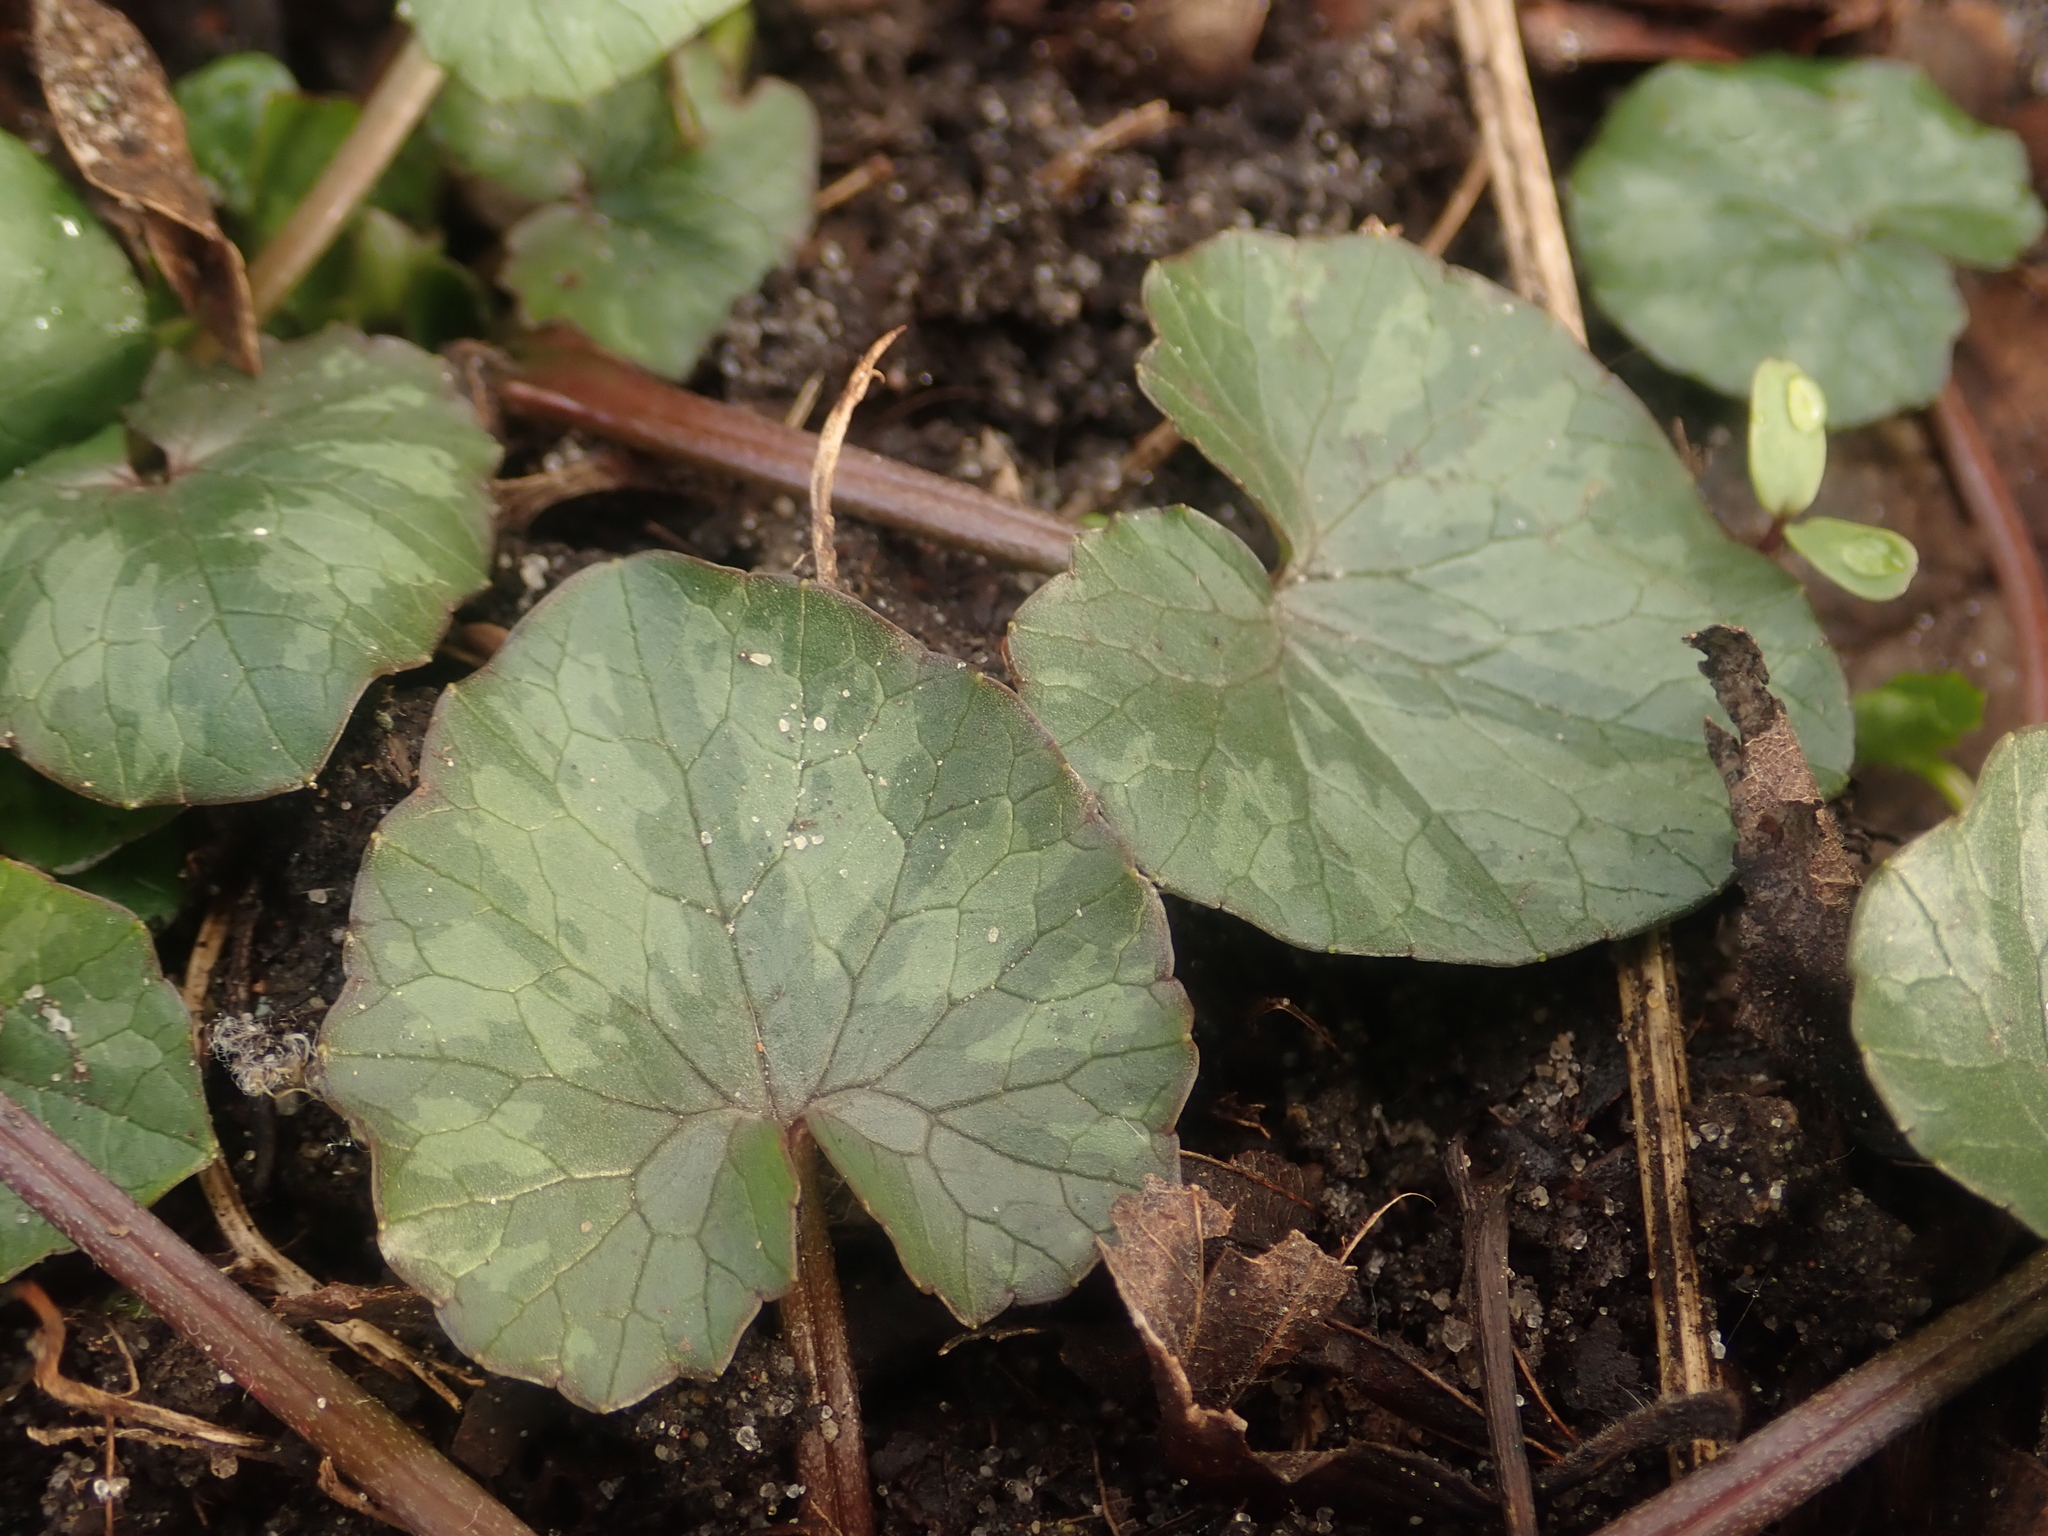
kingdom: Plantae
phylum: Tracheophyta
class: Magnoliopsida
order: Ranunculales
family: Ranunculaceae
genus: Ficaria
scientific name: Ficaria verna
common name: Lesser celandine
